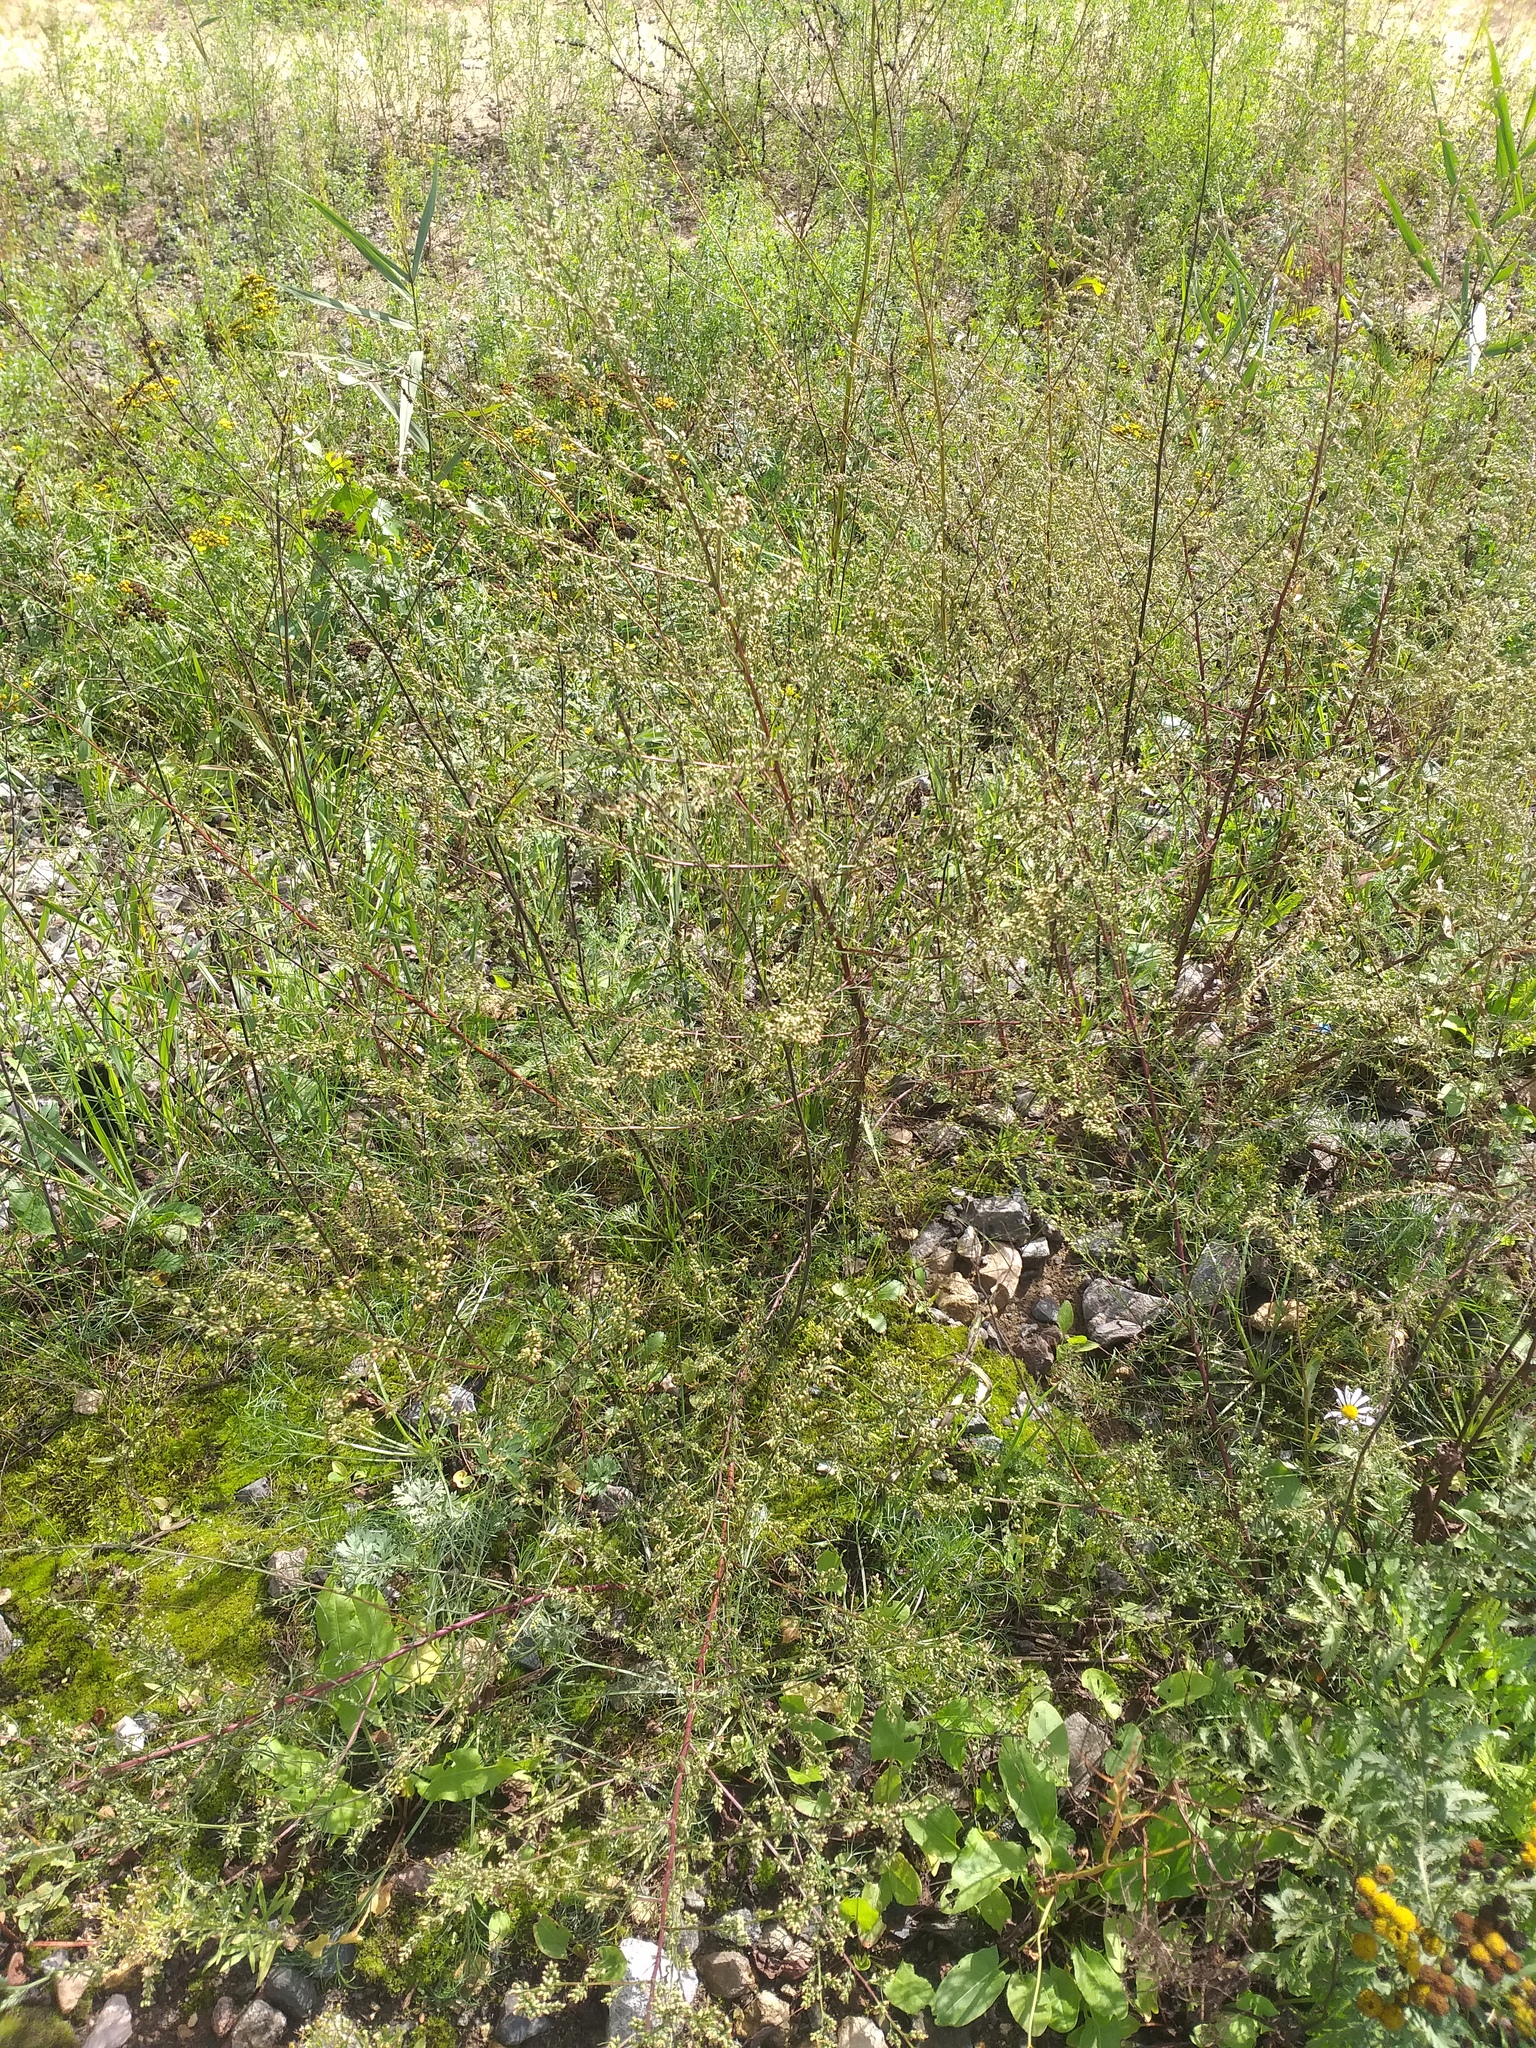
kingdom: Plantae
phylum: Tracheophyta
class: Magnoliopsida
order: Asterales
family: Asteraceae
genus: Artemisia
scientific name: Artemisia campestris
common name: Field wormwood
